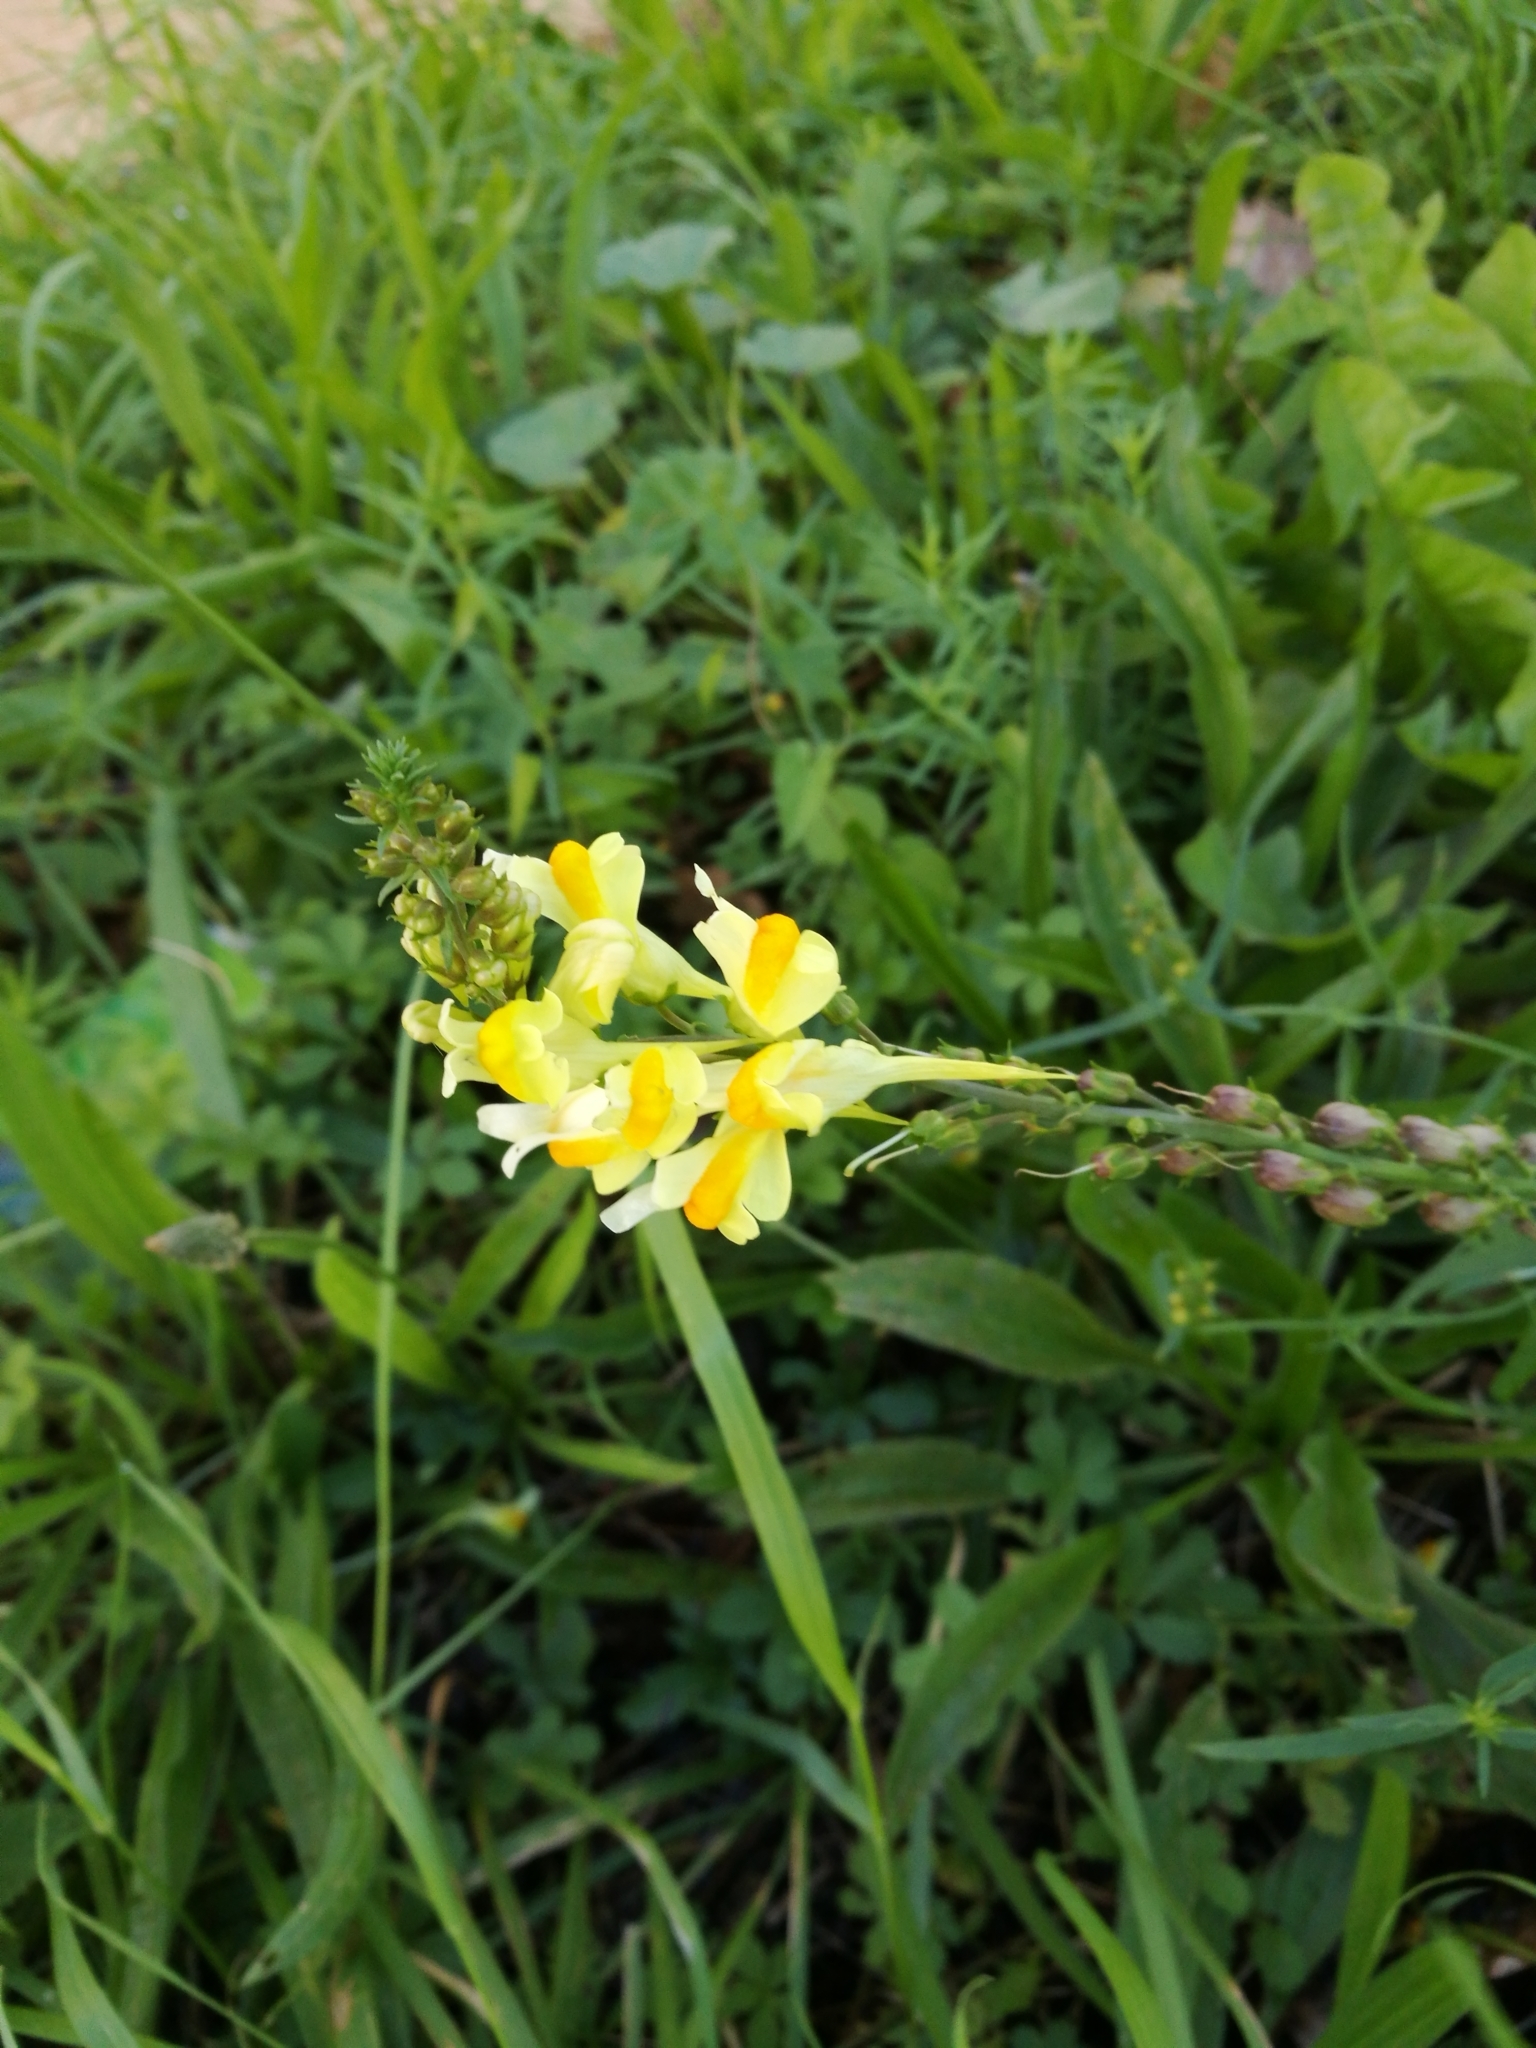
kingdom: Plantae
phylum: Tracheophyta
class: Magnoliopsida
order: Lamiales
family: Plantaginaceae
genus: Linaria
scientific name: Linaria vulgaris
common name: Butter and eggs
